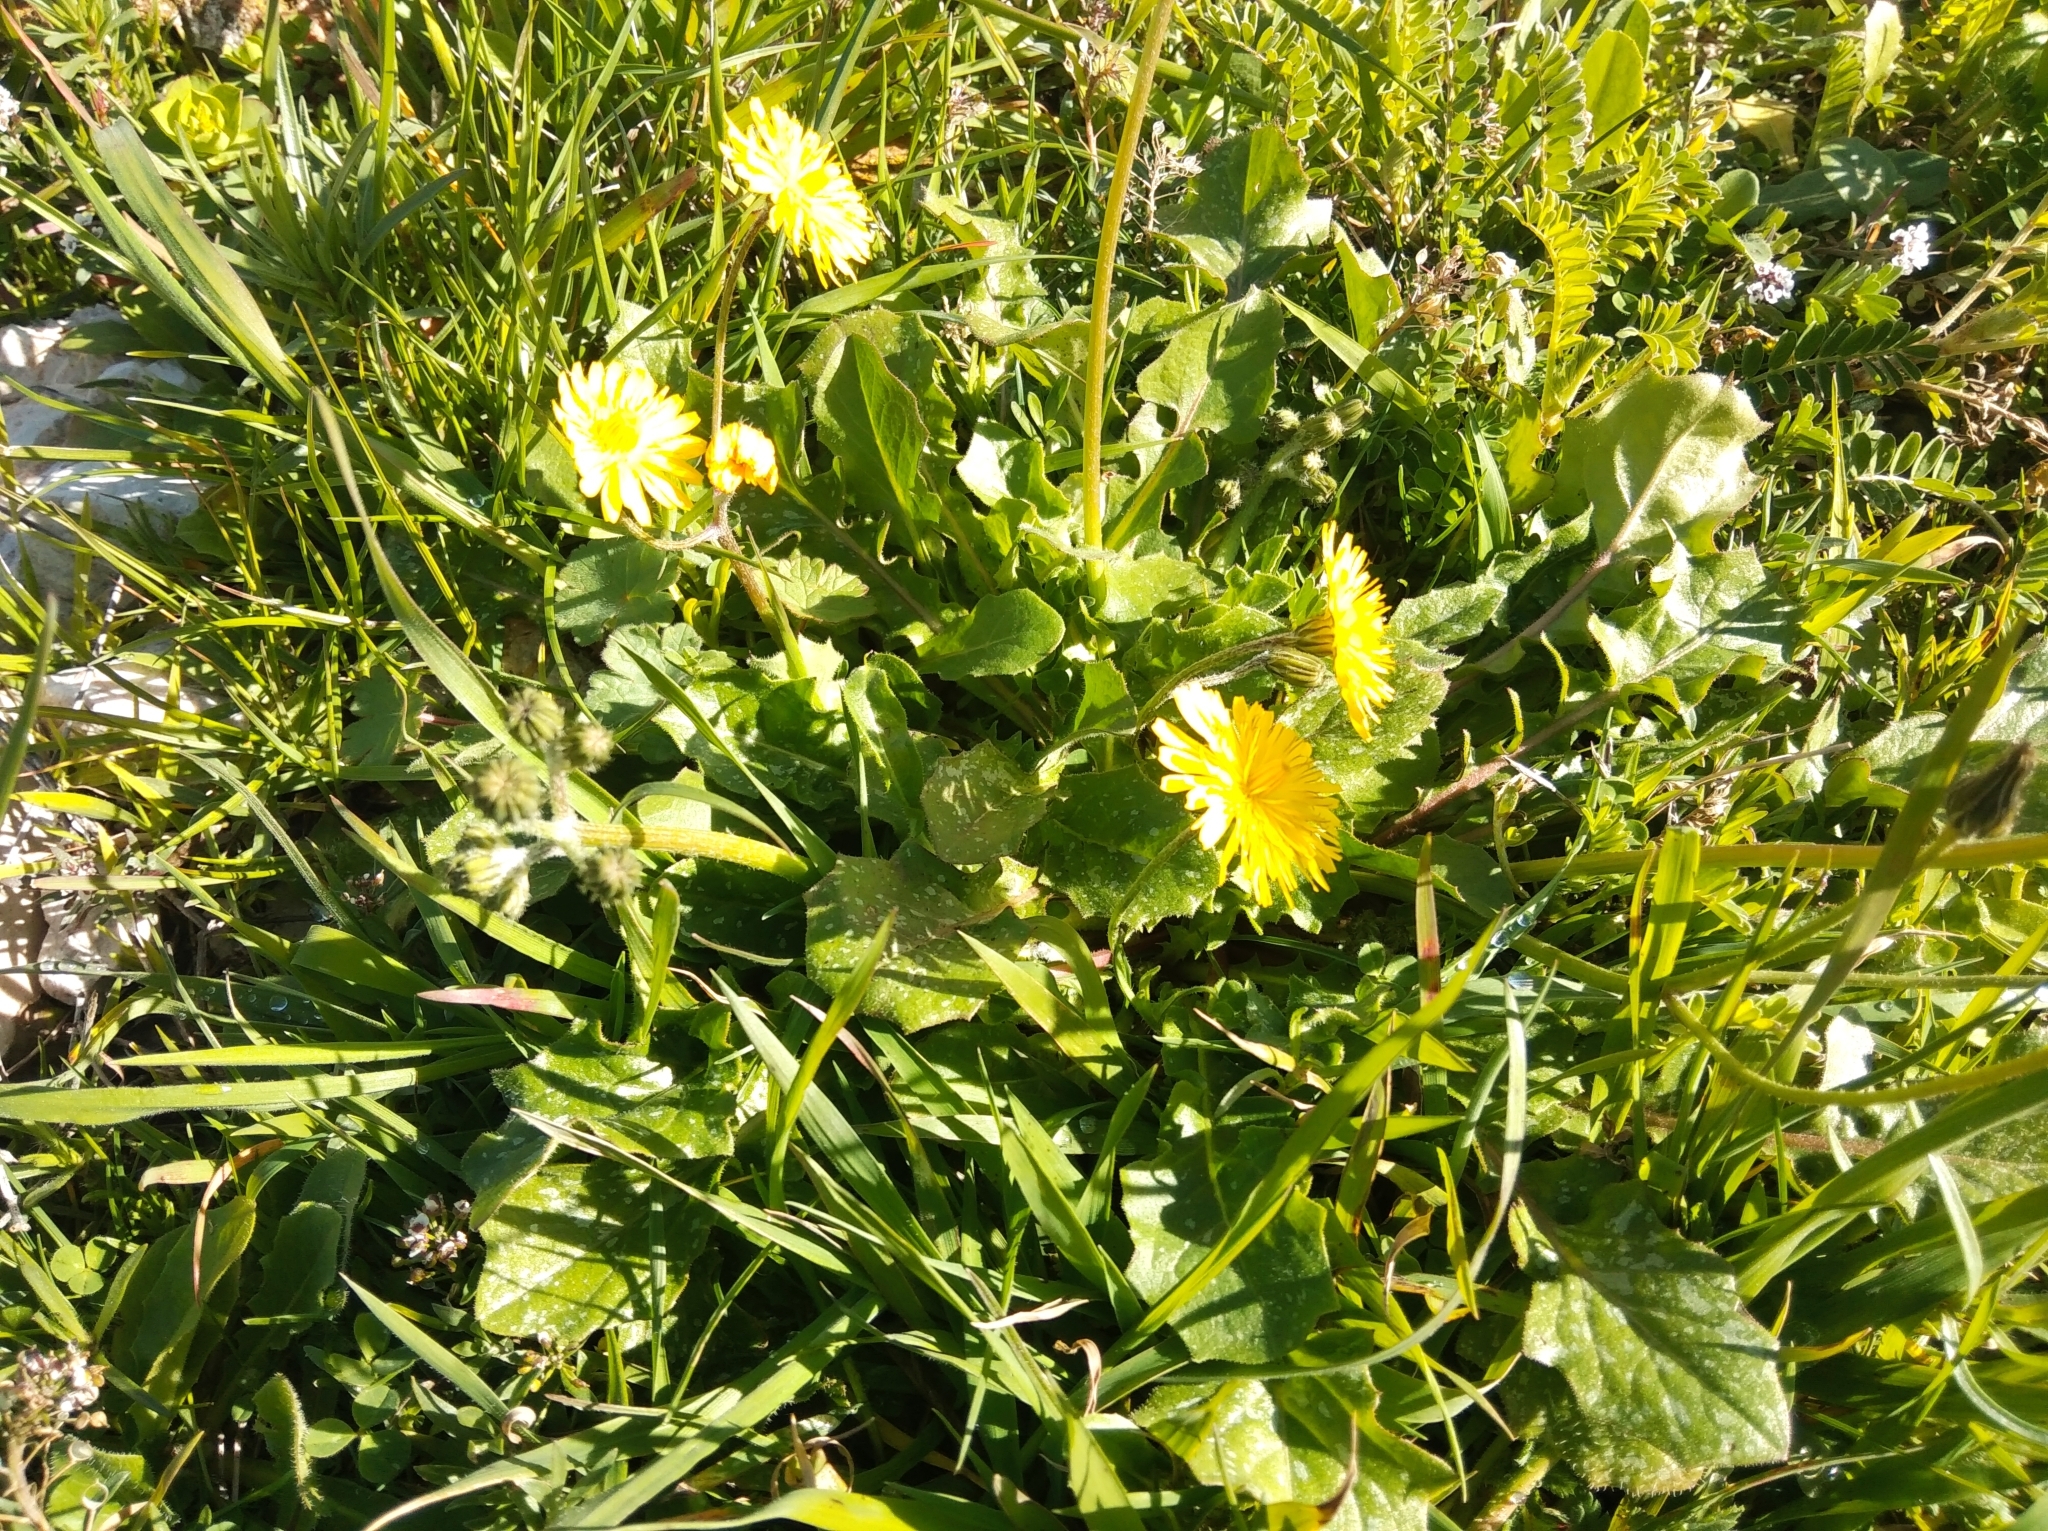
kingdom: Plantae
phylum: Tracheophyta
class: Magnoliopsida
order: Asterales
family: Asteraceae
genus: Taraxacum
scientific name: Taraxacum officinale
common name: Common dandelion
